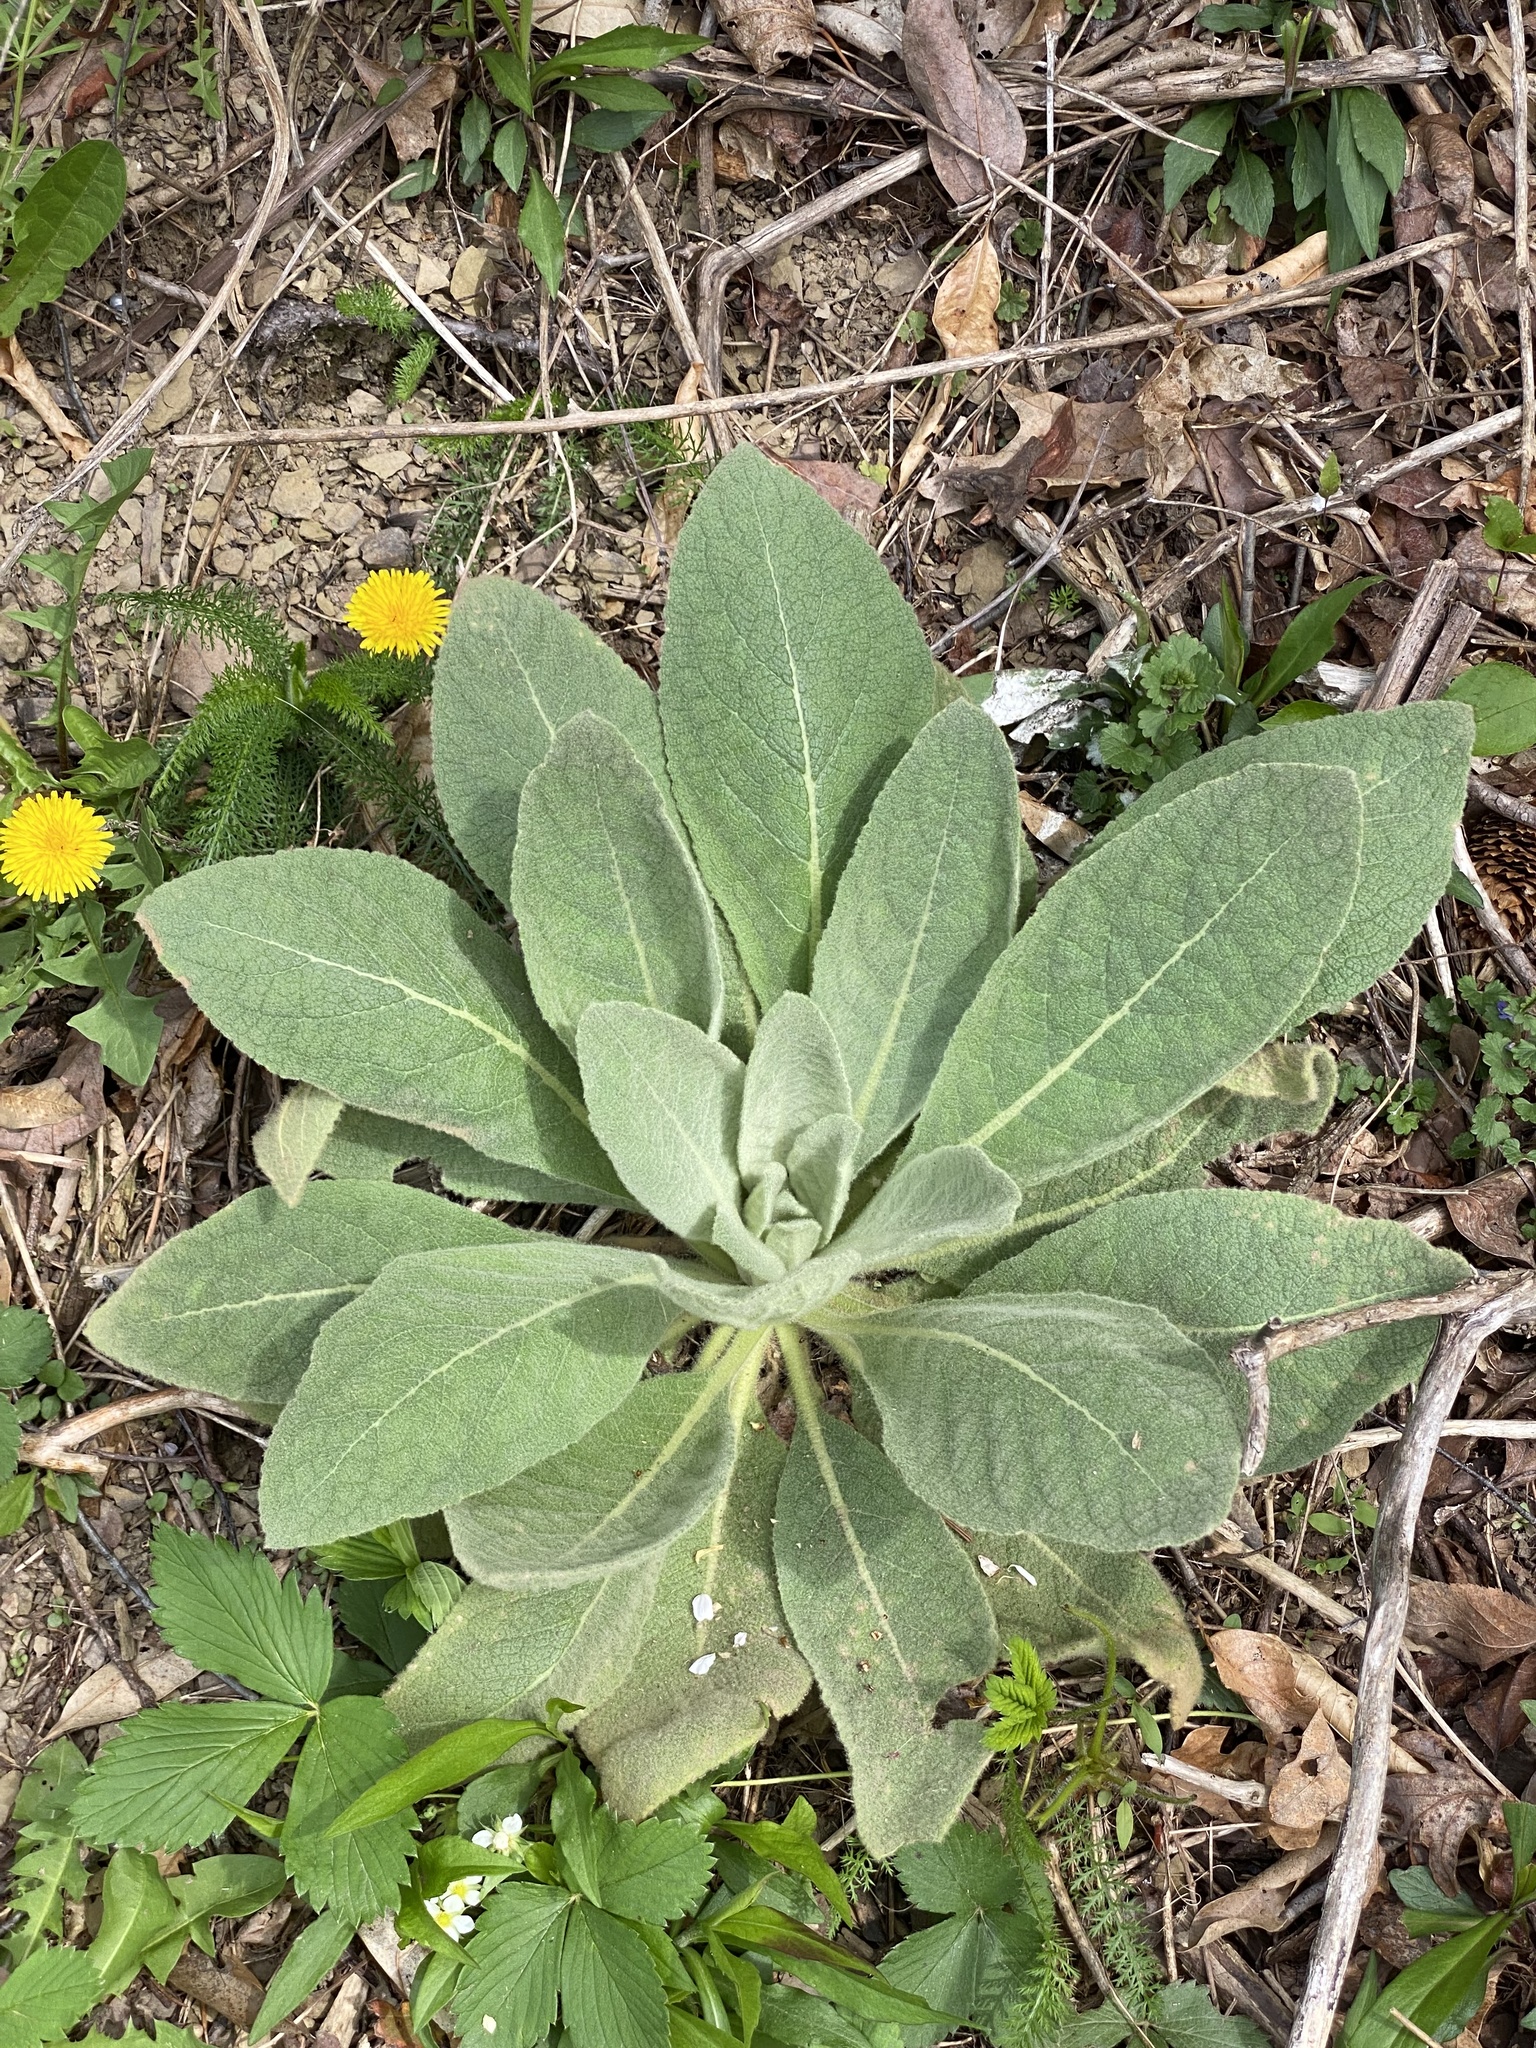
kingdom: Plantae
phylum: Tracheophyta
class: Magnoliopsida
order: Lamiales
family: Scrophulariaceae
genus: Verbascum
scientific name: Verbascum thapsus
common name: Common mullein
